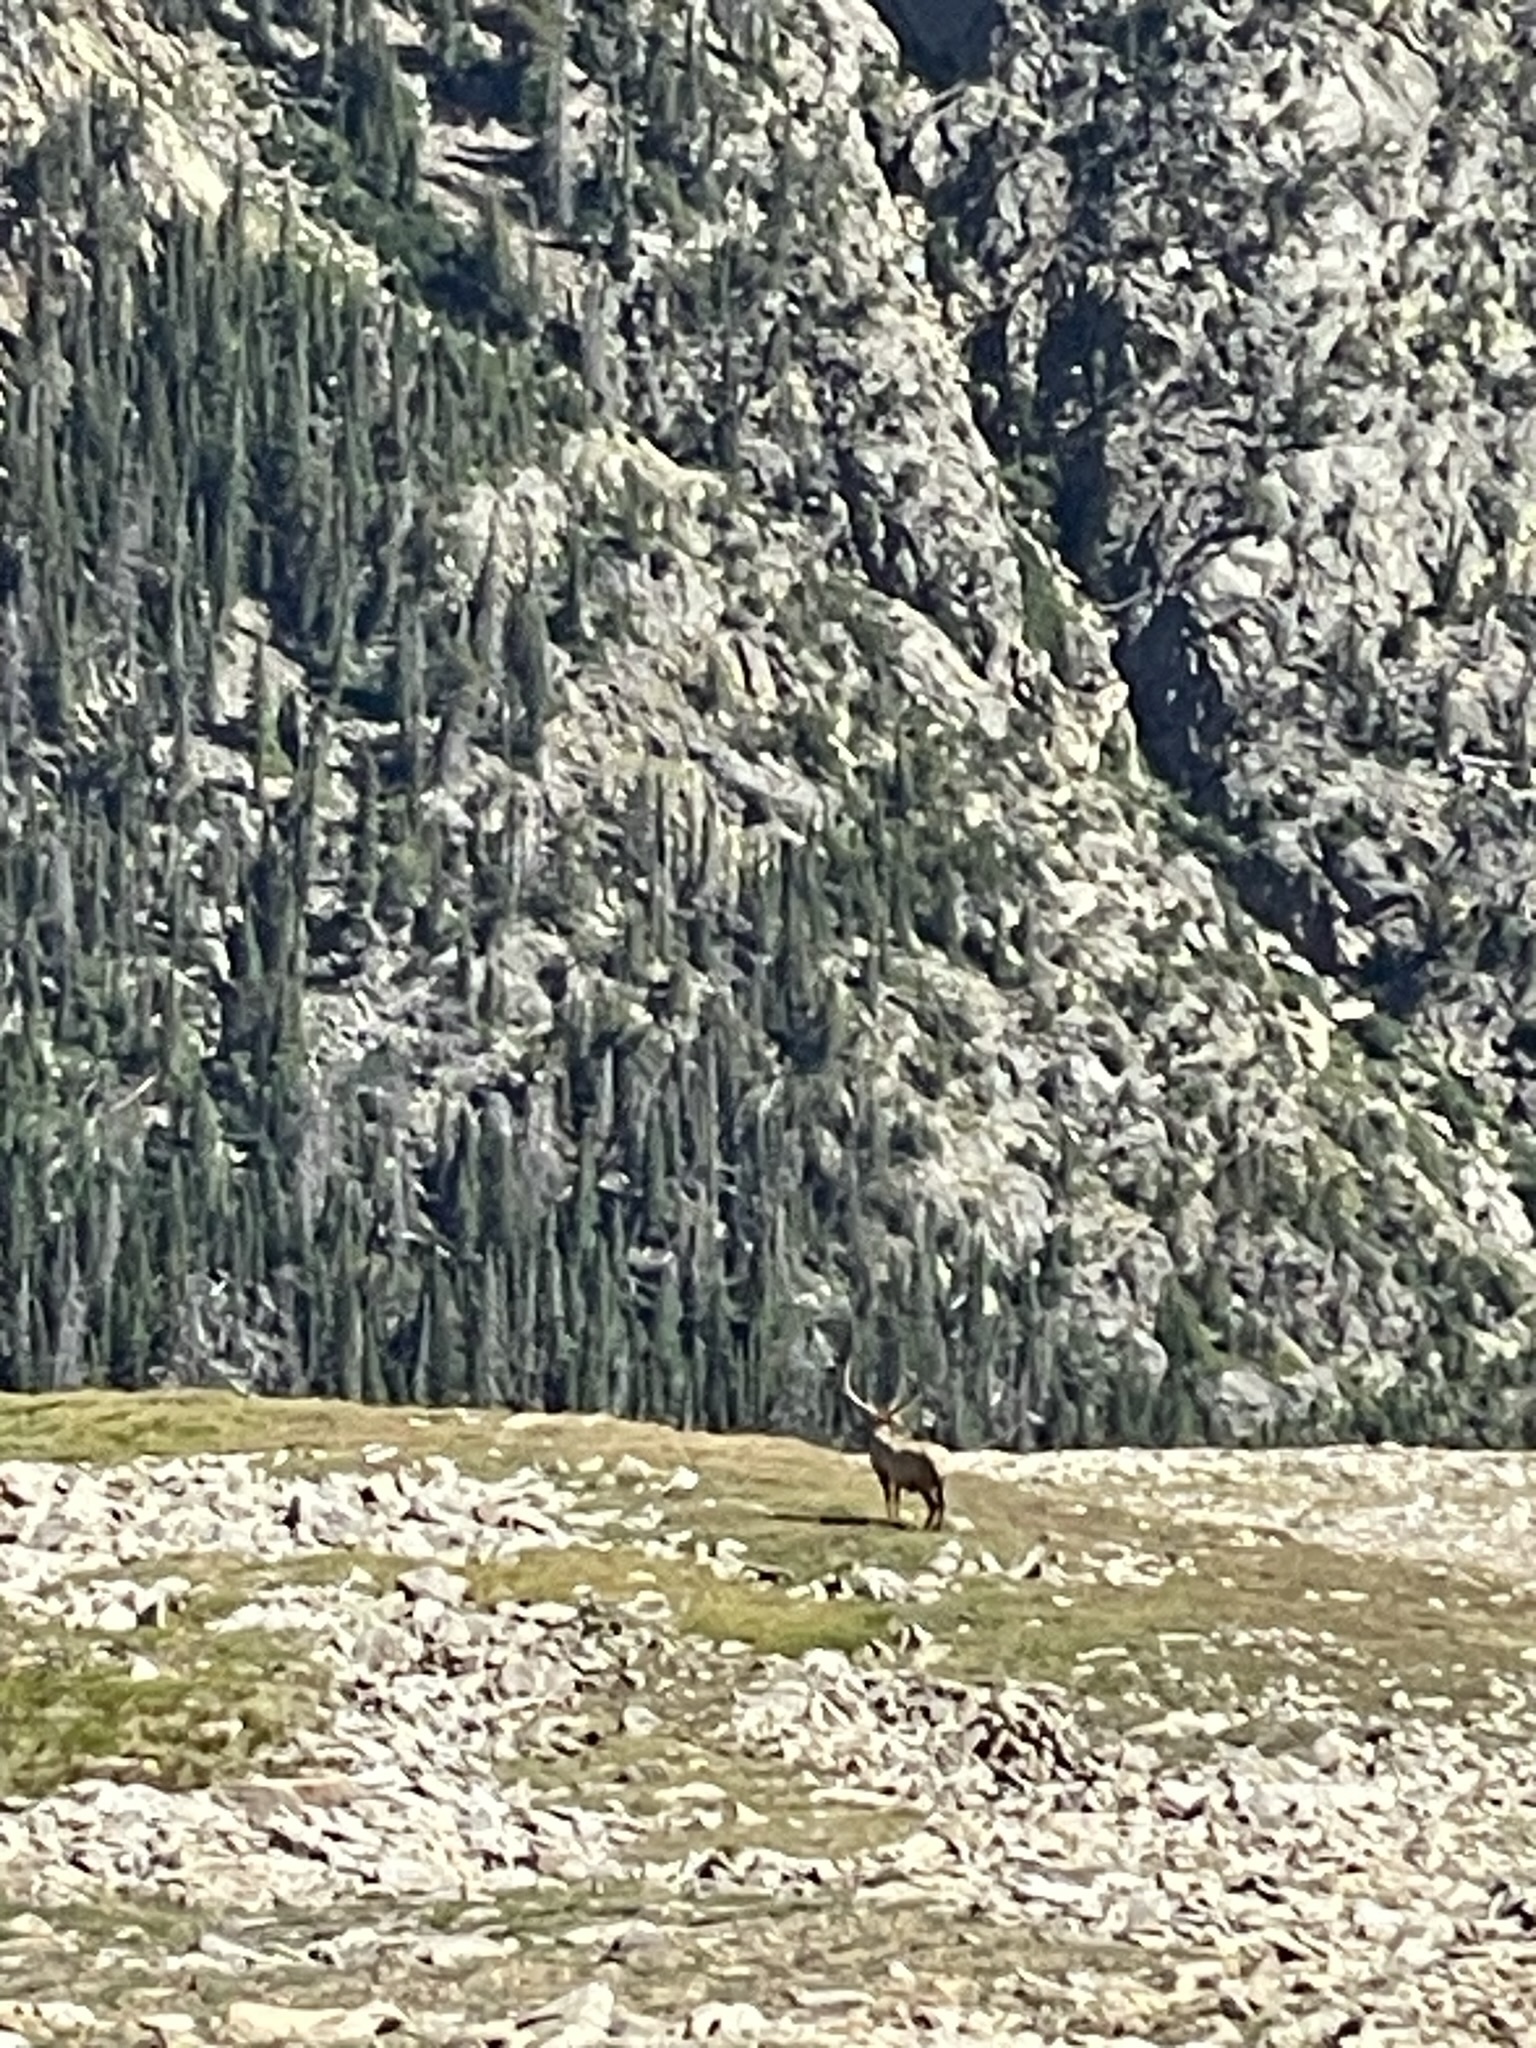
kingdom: Animalia
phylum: Chordata
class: Mammalia
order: Artiodactyla
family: Cervidae
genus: Cervus
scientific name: Cervus elaphus
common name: Red deer
